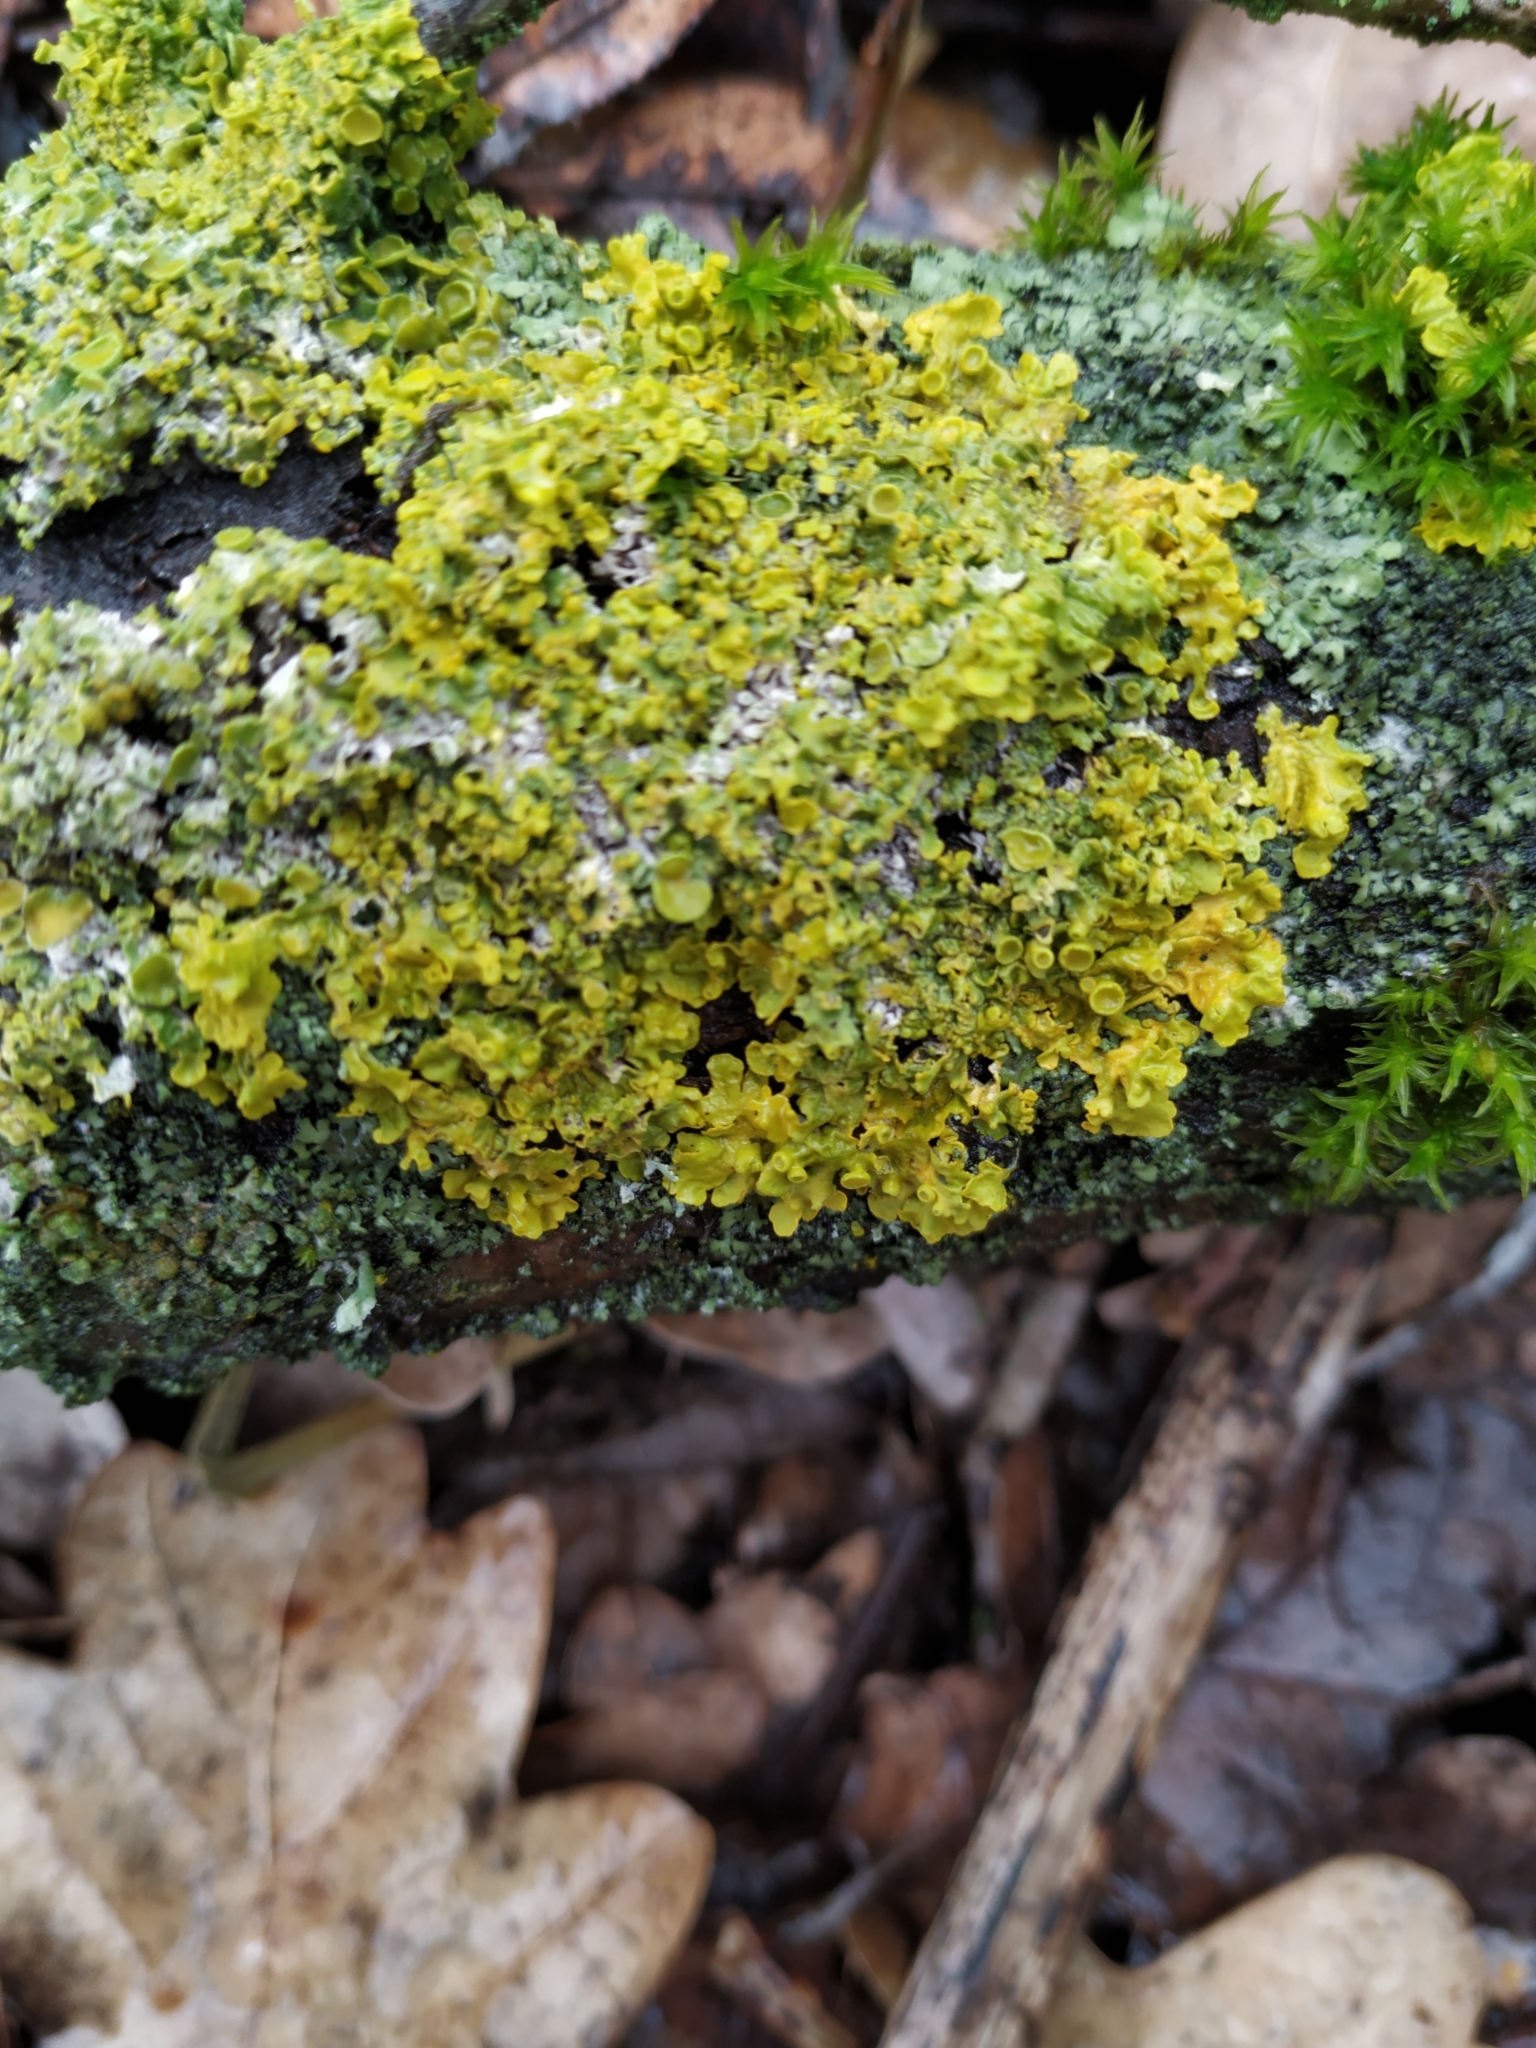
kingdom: Fungi
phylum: Ascomycota
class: Lecanoromycetes
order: Teloschistales
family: Teloschistaceae
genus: Xanthoria
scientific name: Xanthoria parietina
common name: Common orange lichen
